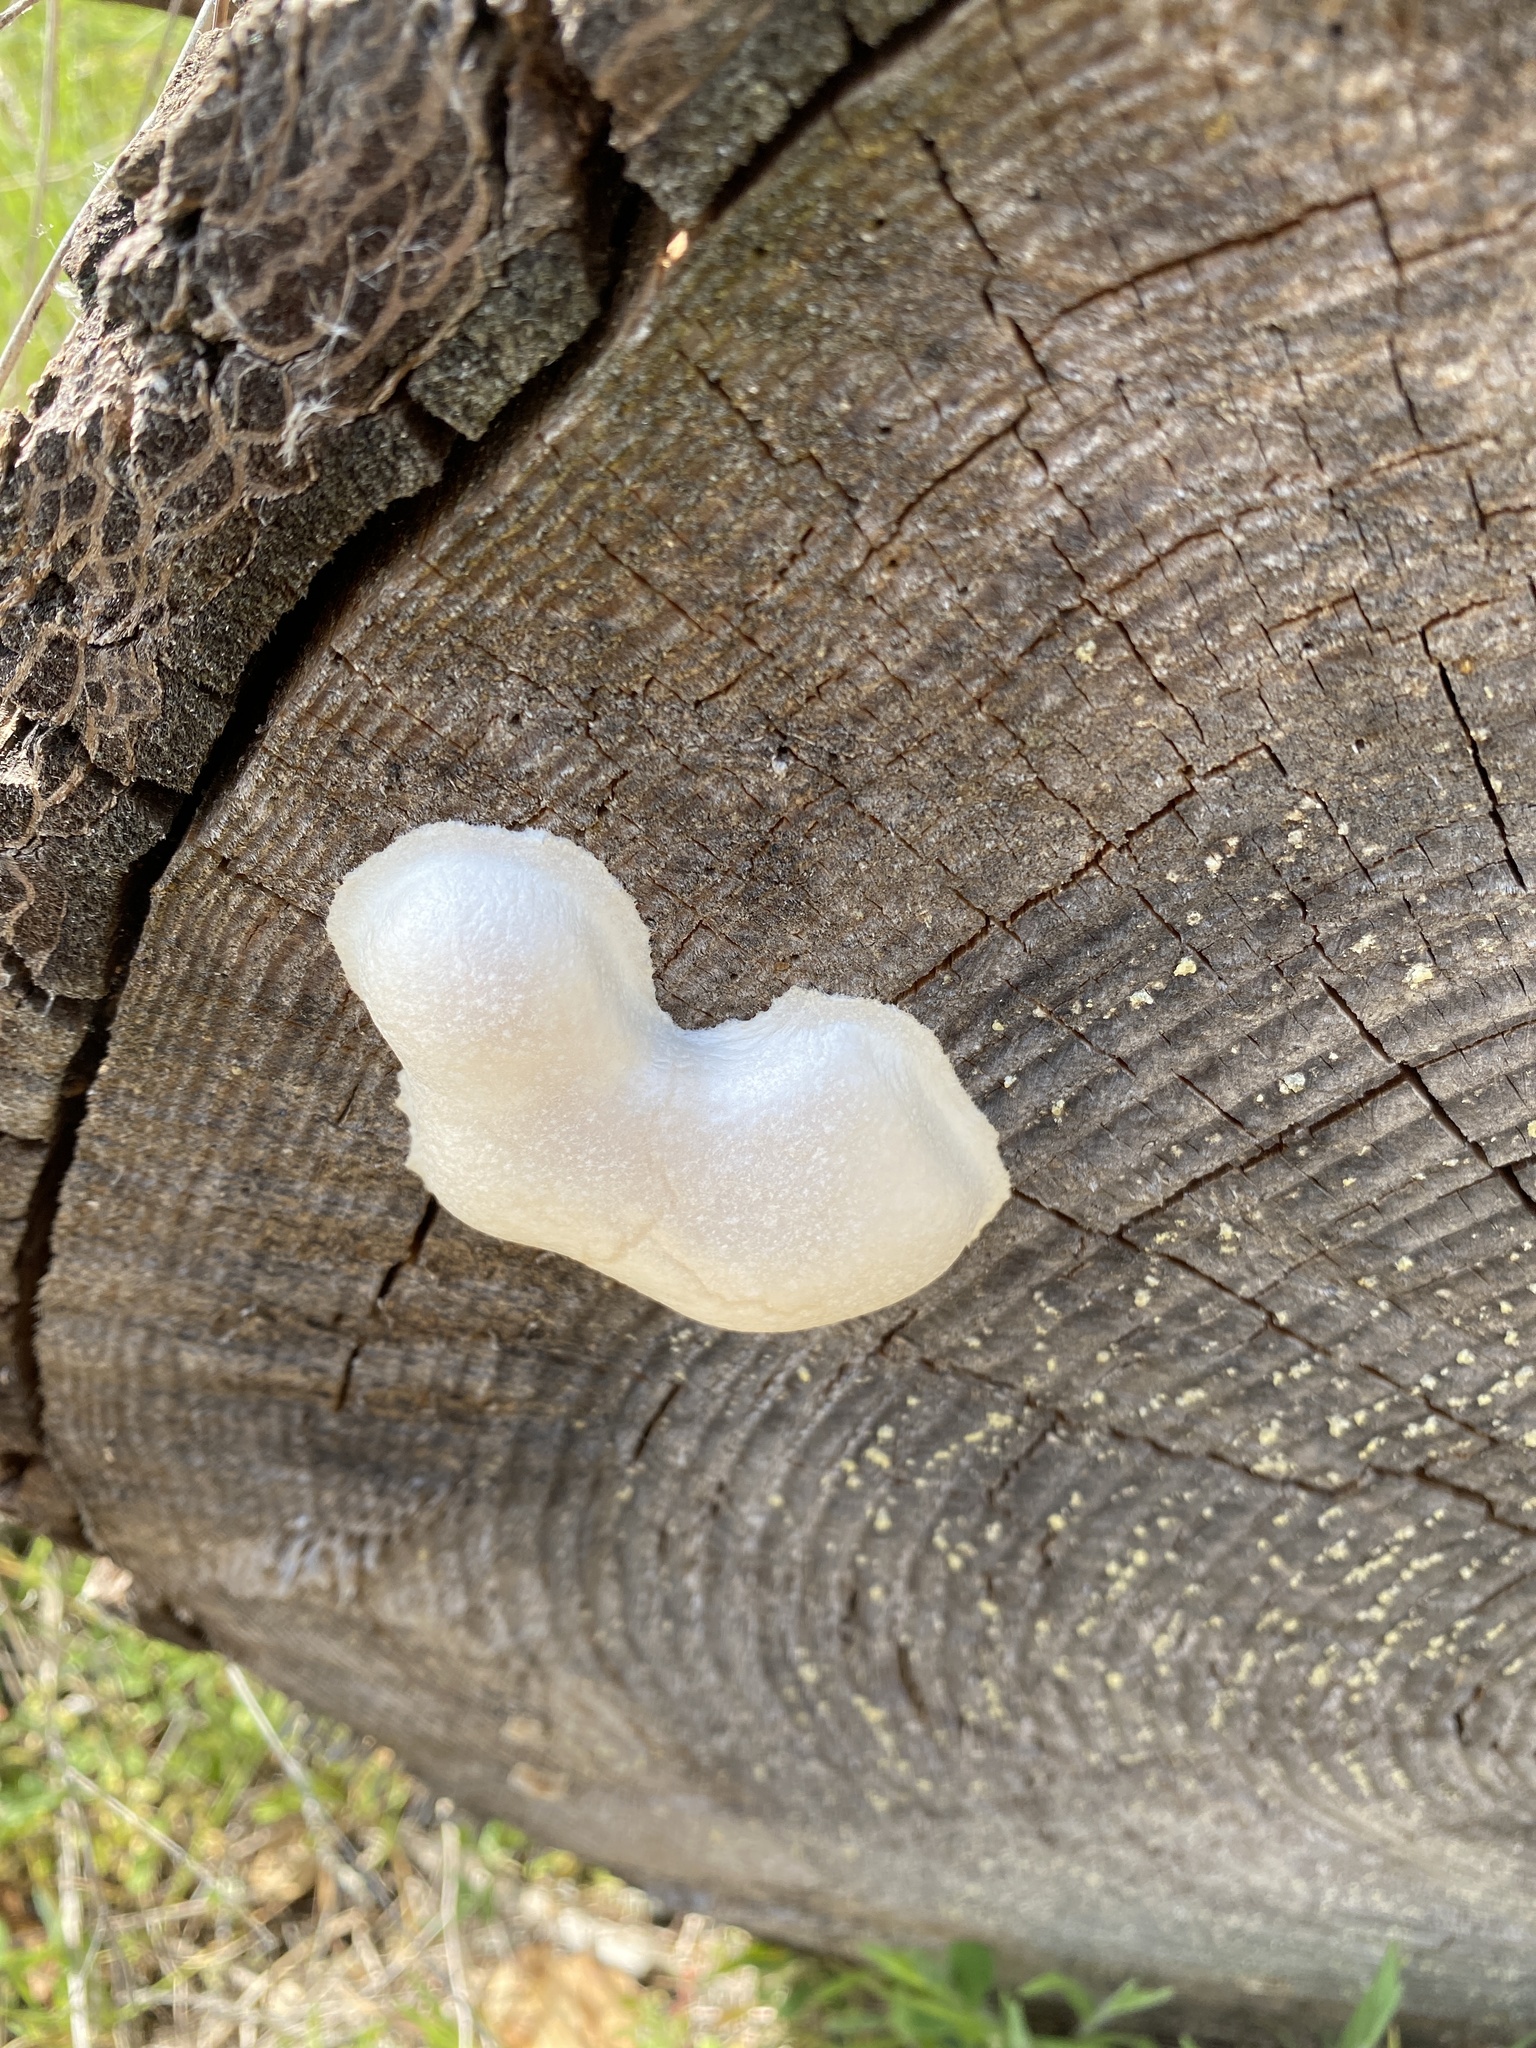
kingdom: Protozoa
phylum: Mycetozoa
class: Myxomycetes
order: Cribrariales
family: Tubiferaceae
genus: Reticularia
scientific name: Reticularia lycoperdon
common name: False puffball
